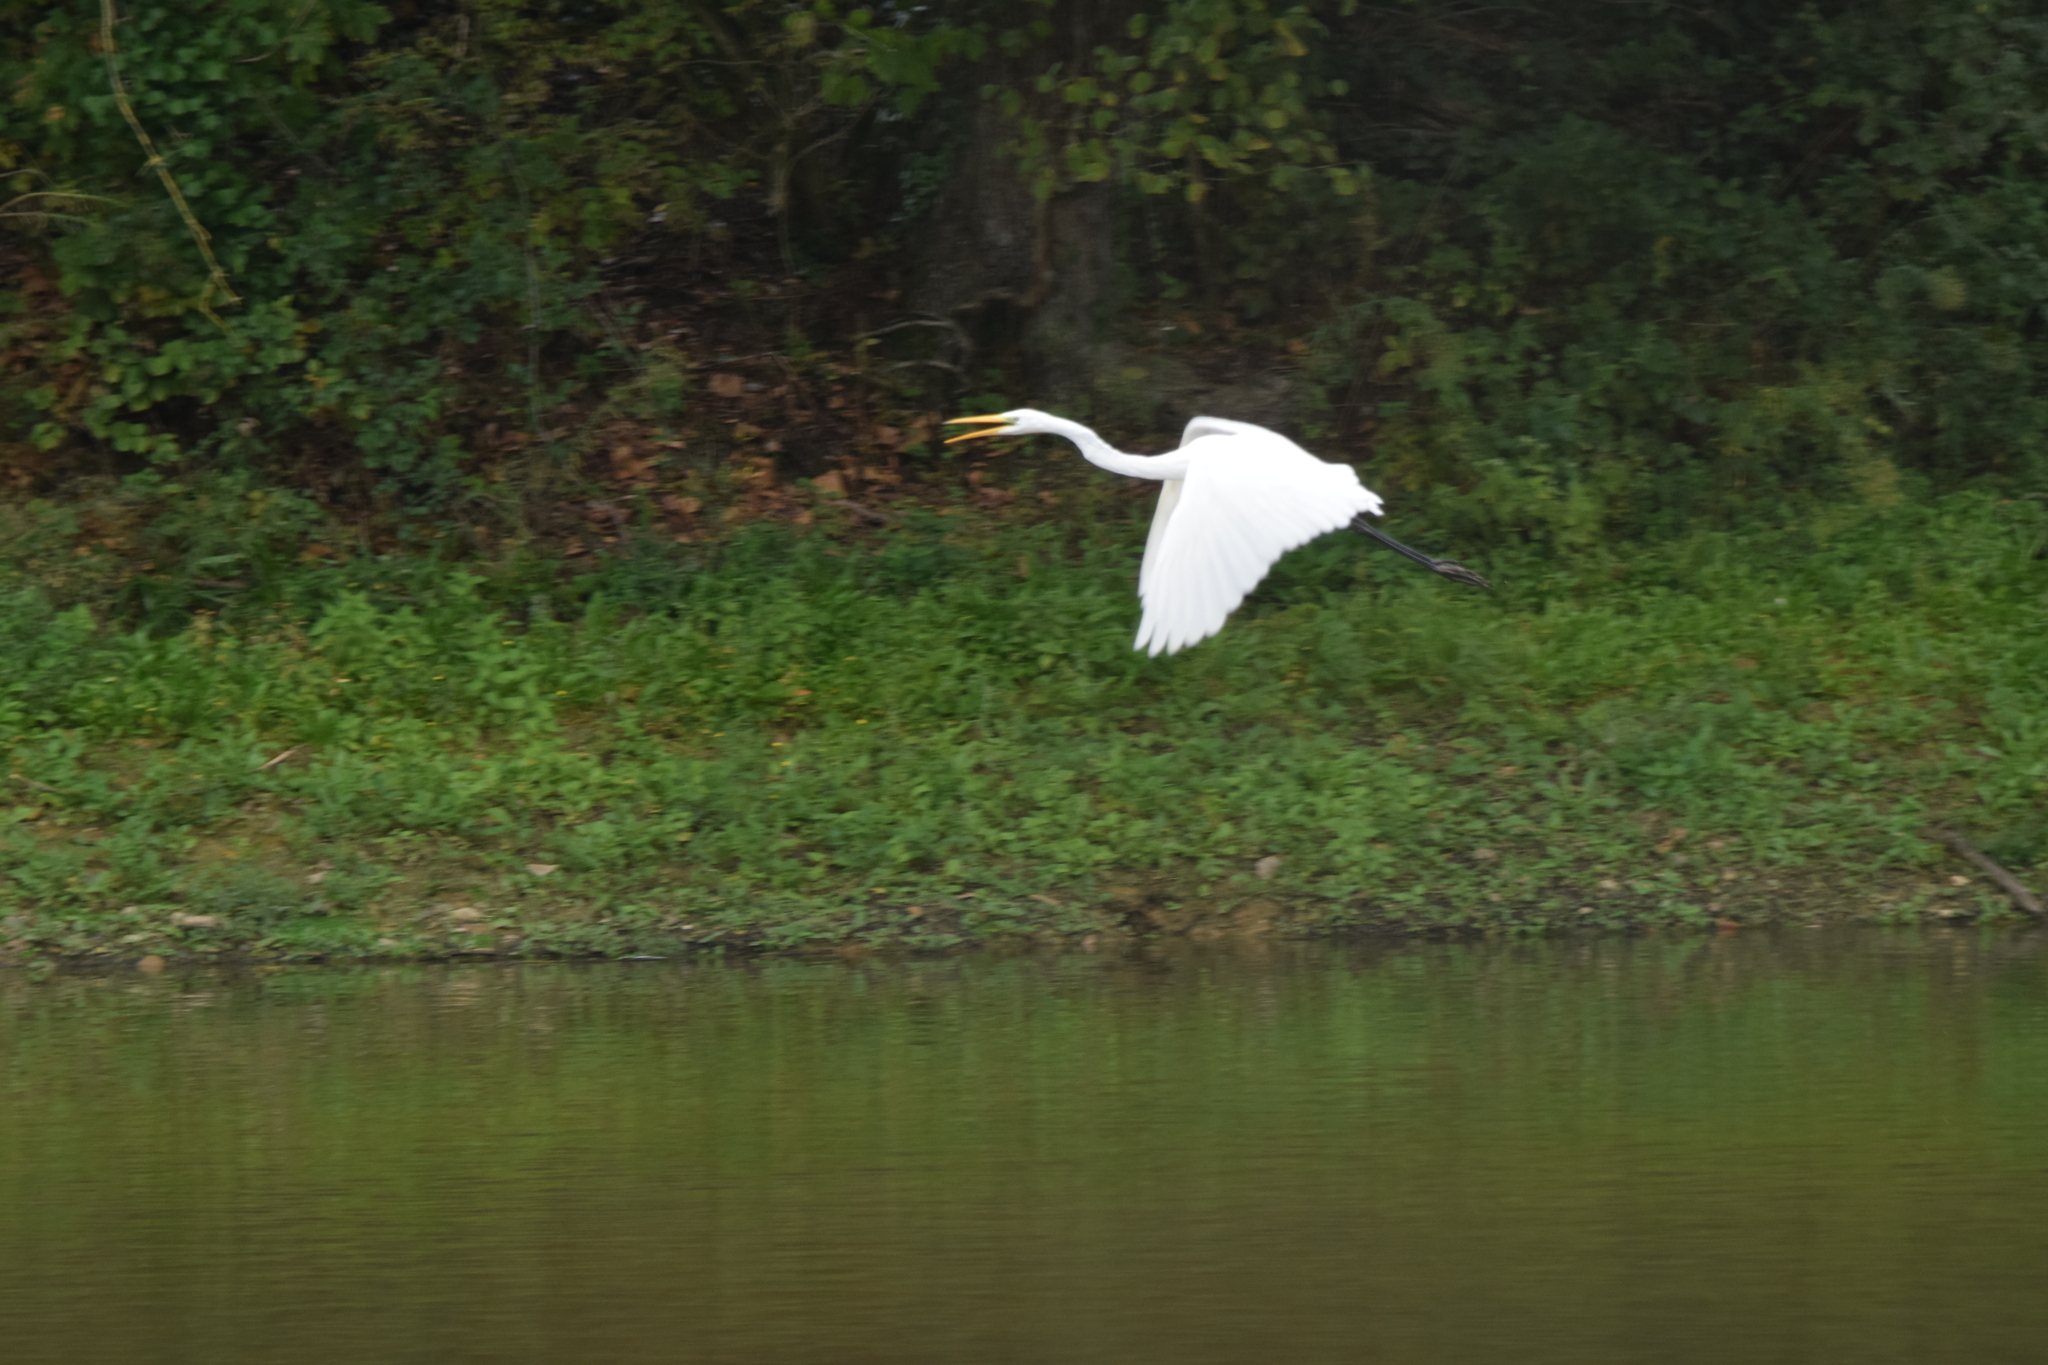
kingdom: Animalia
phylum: Chordata
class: Aves
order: Pelecaniformes
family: Ardeidae
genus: Ardea
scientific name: Ardea alba
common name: Great egret
